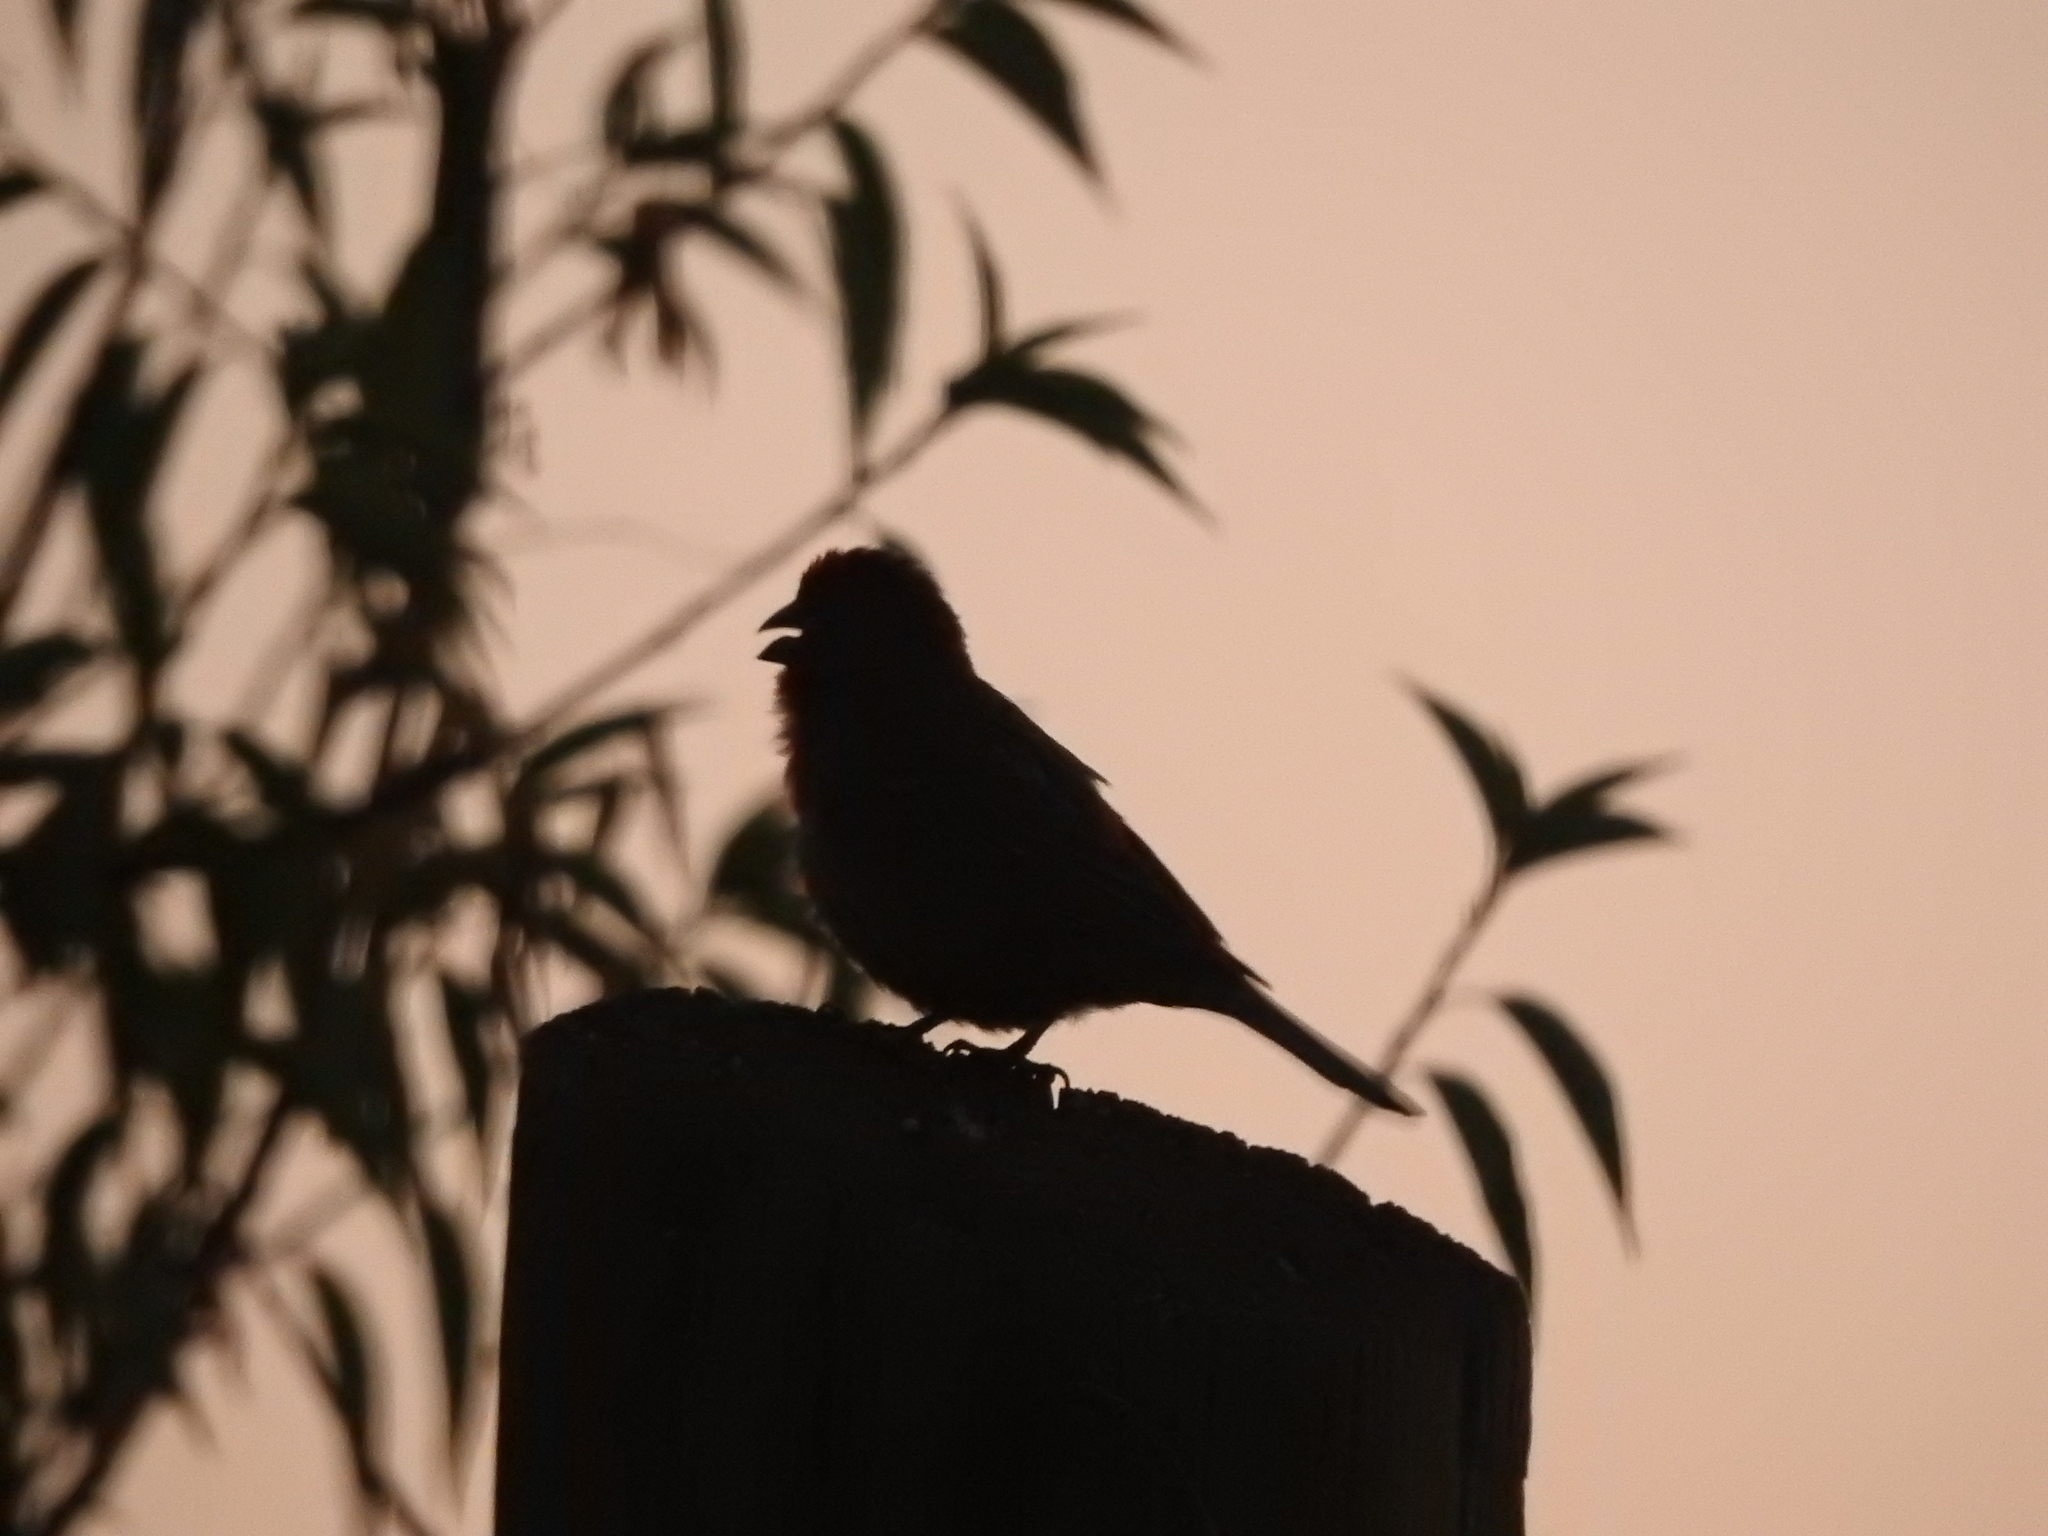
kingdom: Animalia
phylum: Chordata
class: Aves
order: Passeriformes
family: Fringillidae
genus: Haemorhous
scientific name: Haemorhous mexicanus
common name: House finch
